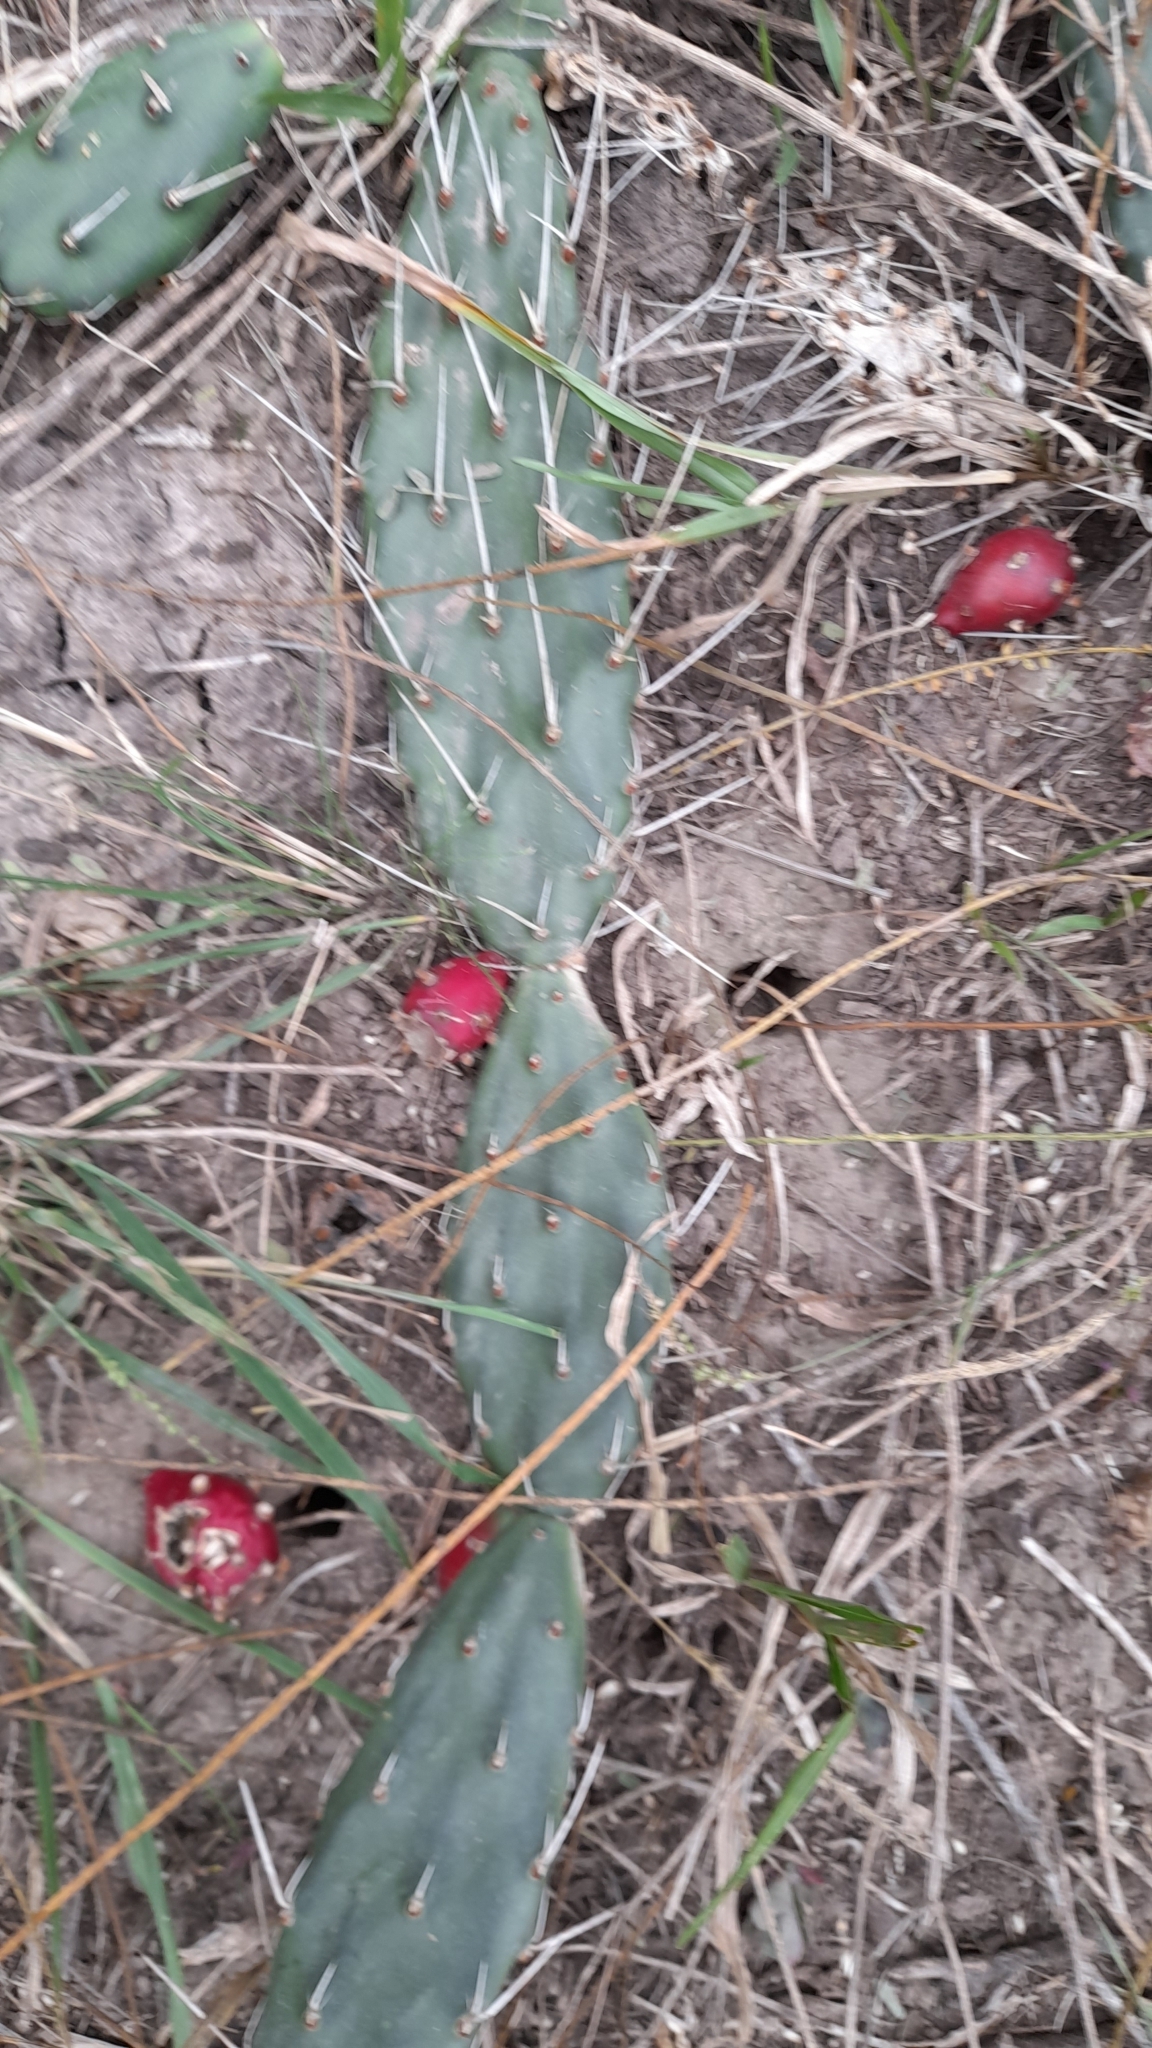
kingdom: Plantae
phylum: Tracheophyta
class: Magnoliopsida
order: Caryophyllales
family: Cactaceae
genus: Opuntia
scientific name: Opuntia retrorsa
